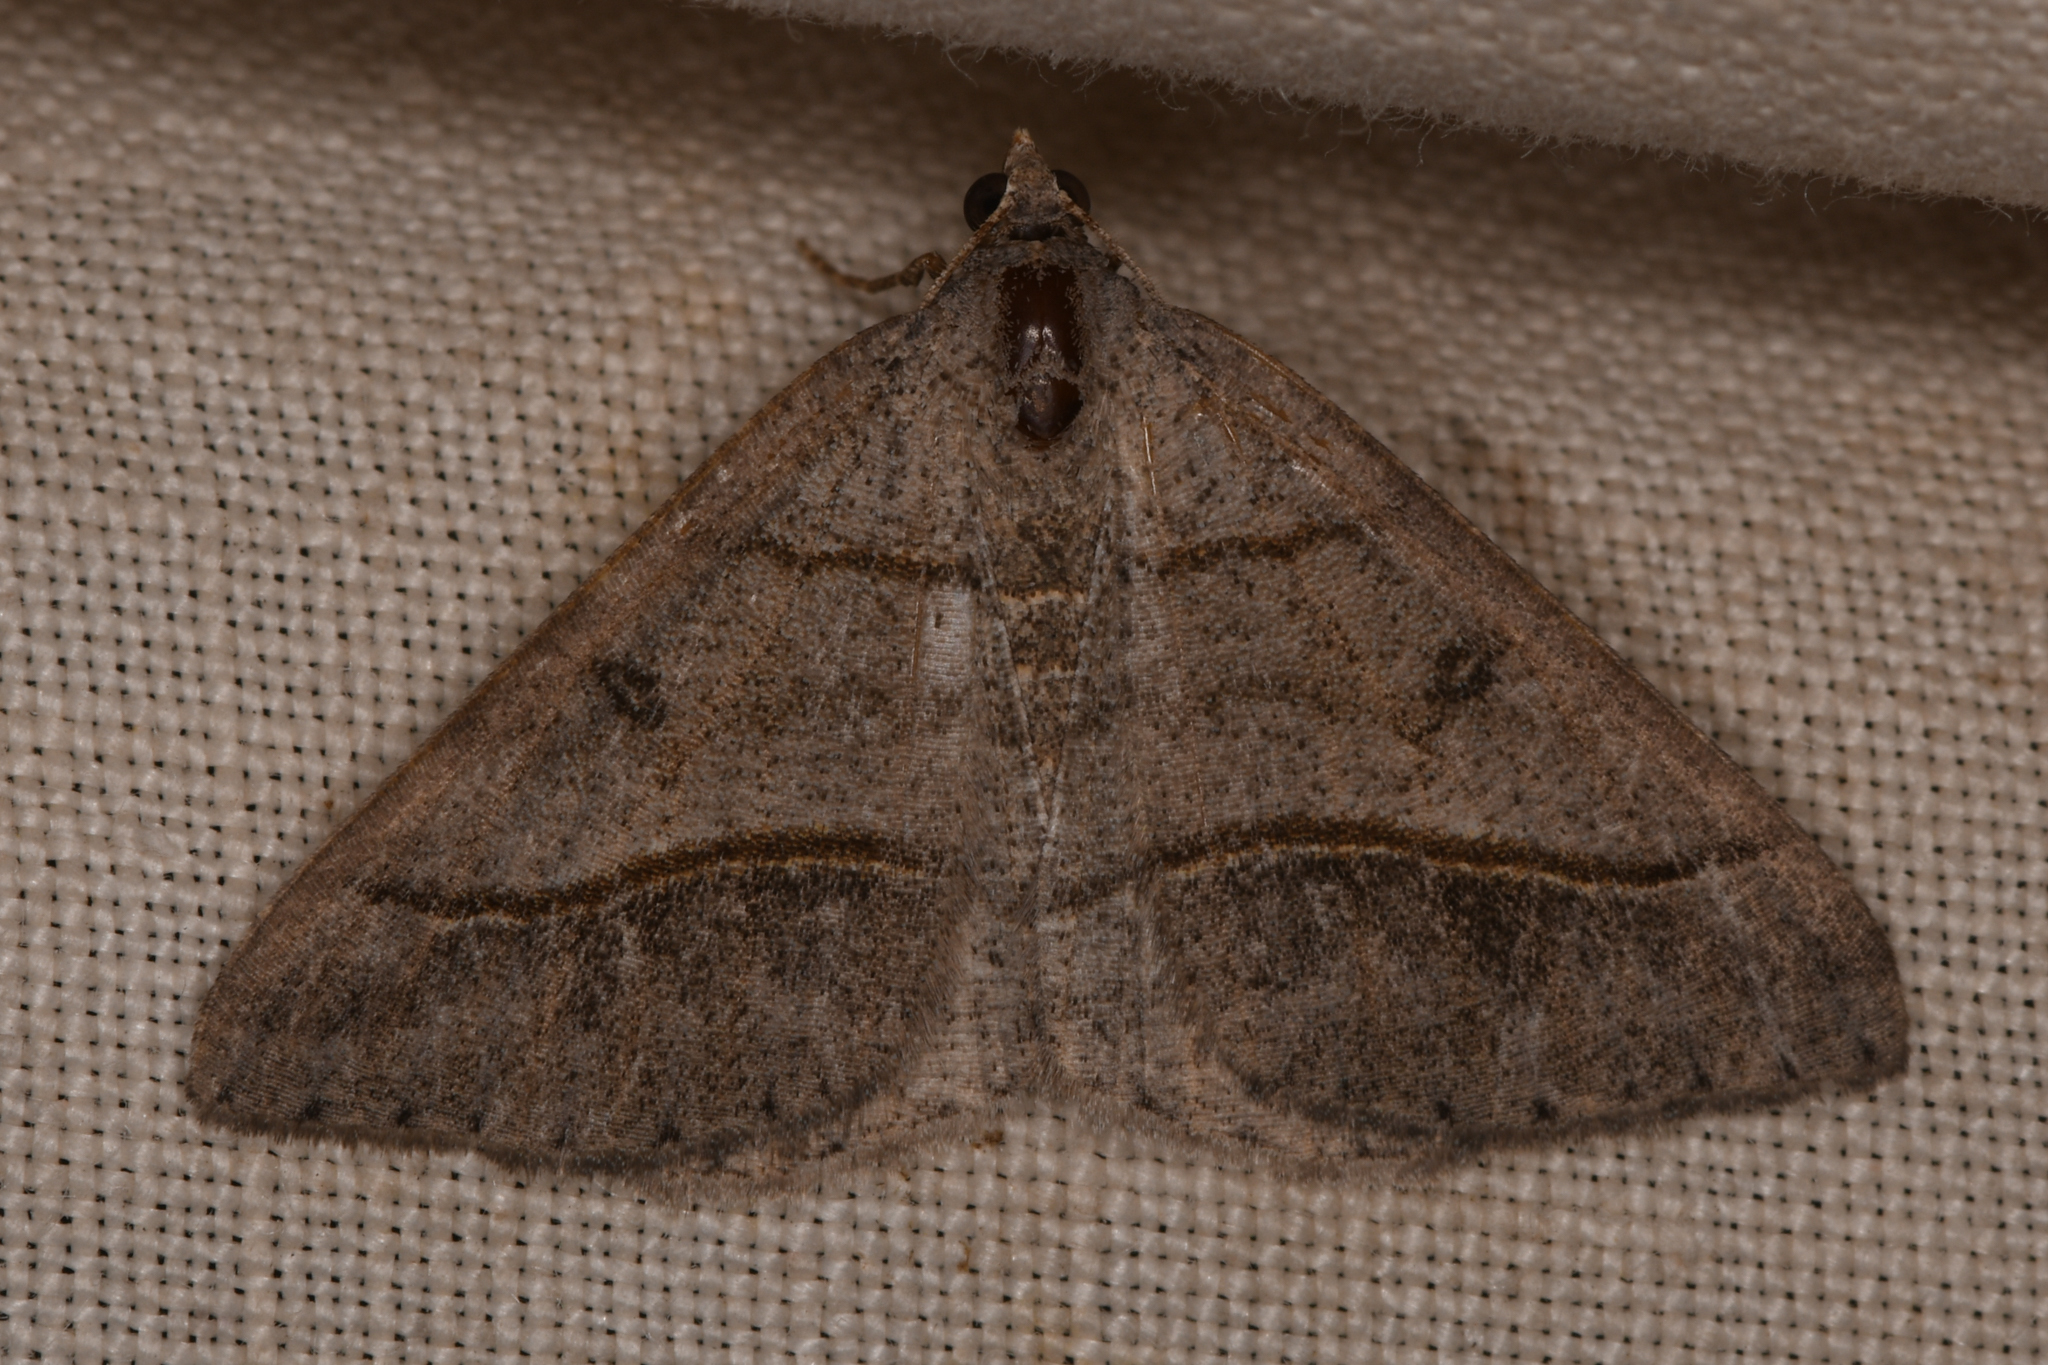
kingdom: Animalia
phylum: Arthropoda
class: Insecta
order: Lepidoptera
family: Geometridae
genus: Digrammia
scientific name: Digrammia neptaria
